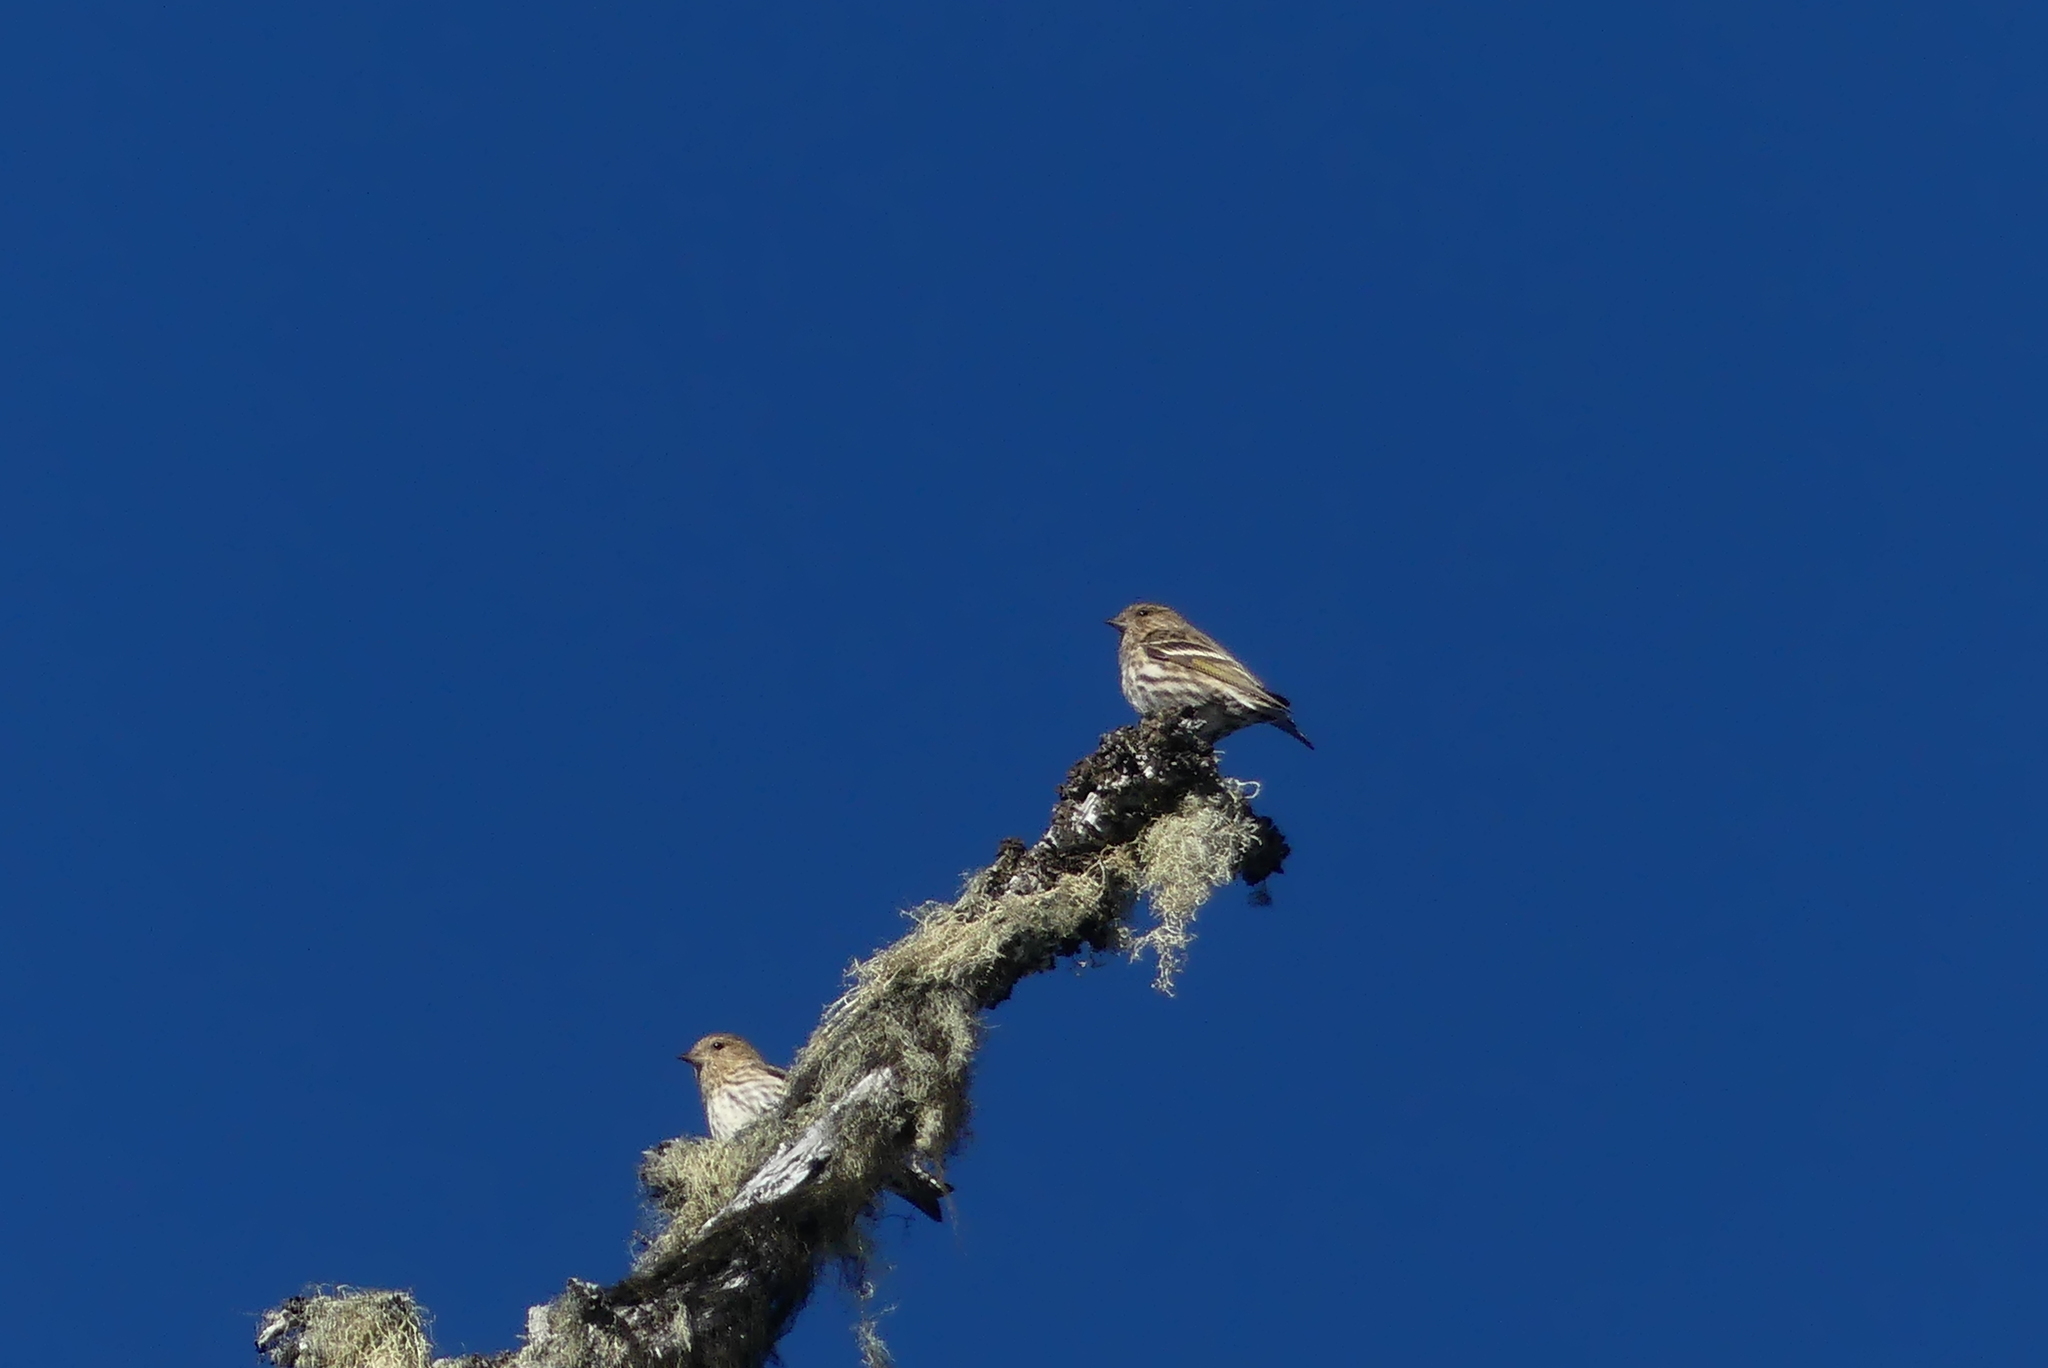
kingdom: Animalia
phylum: Chordata
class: Aves
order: Passeriformes
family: Fringillidae
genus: Spinus
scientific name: Spinus pinus
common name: Pine siskin
